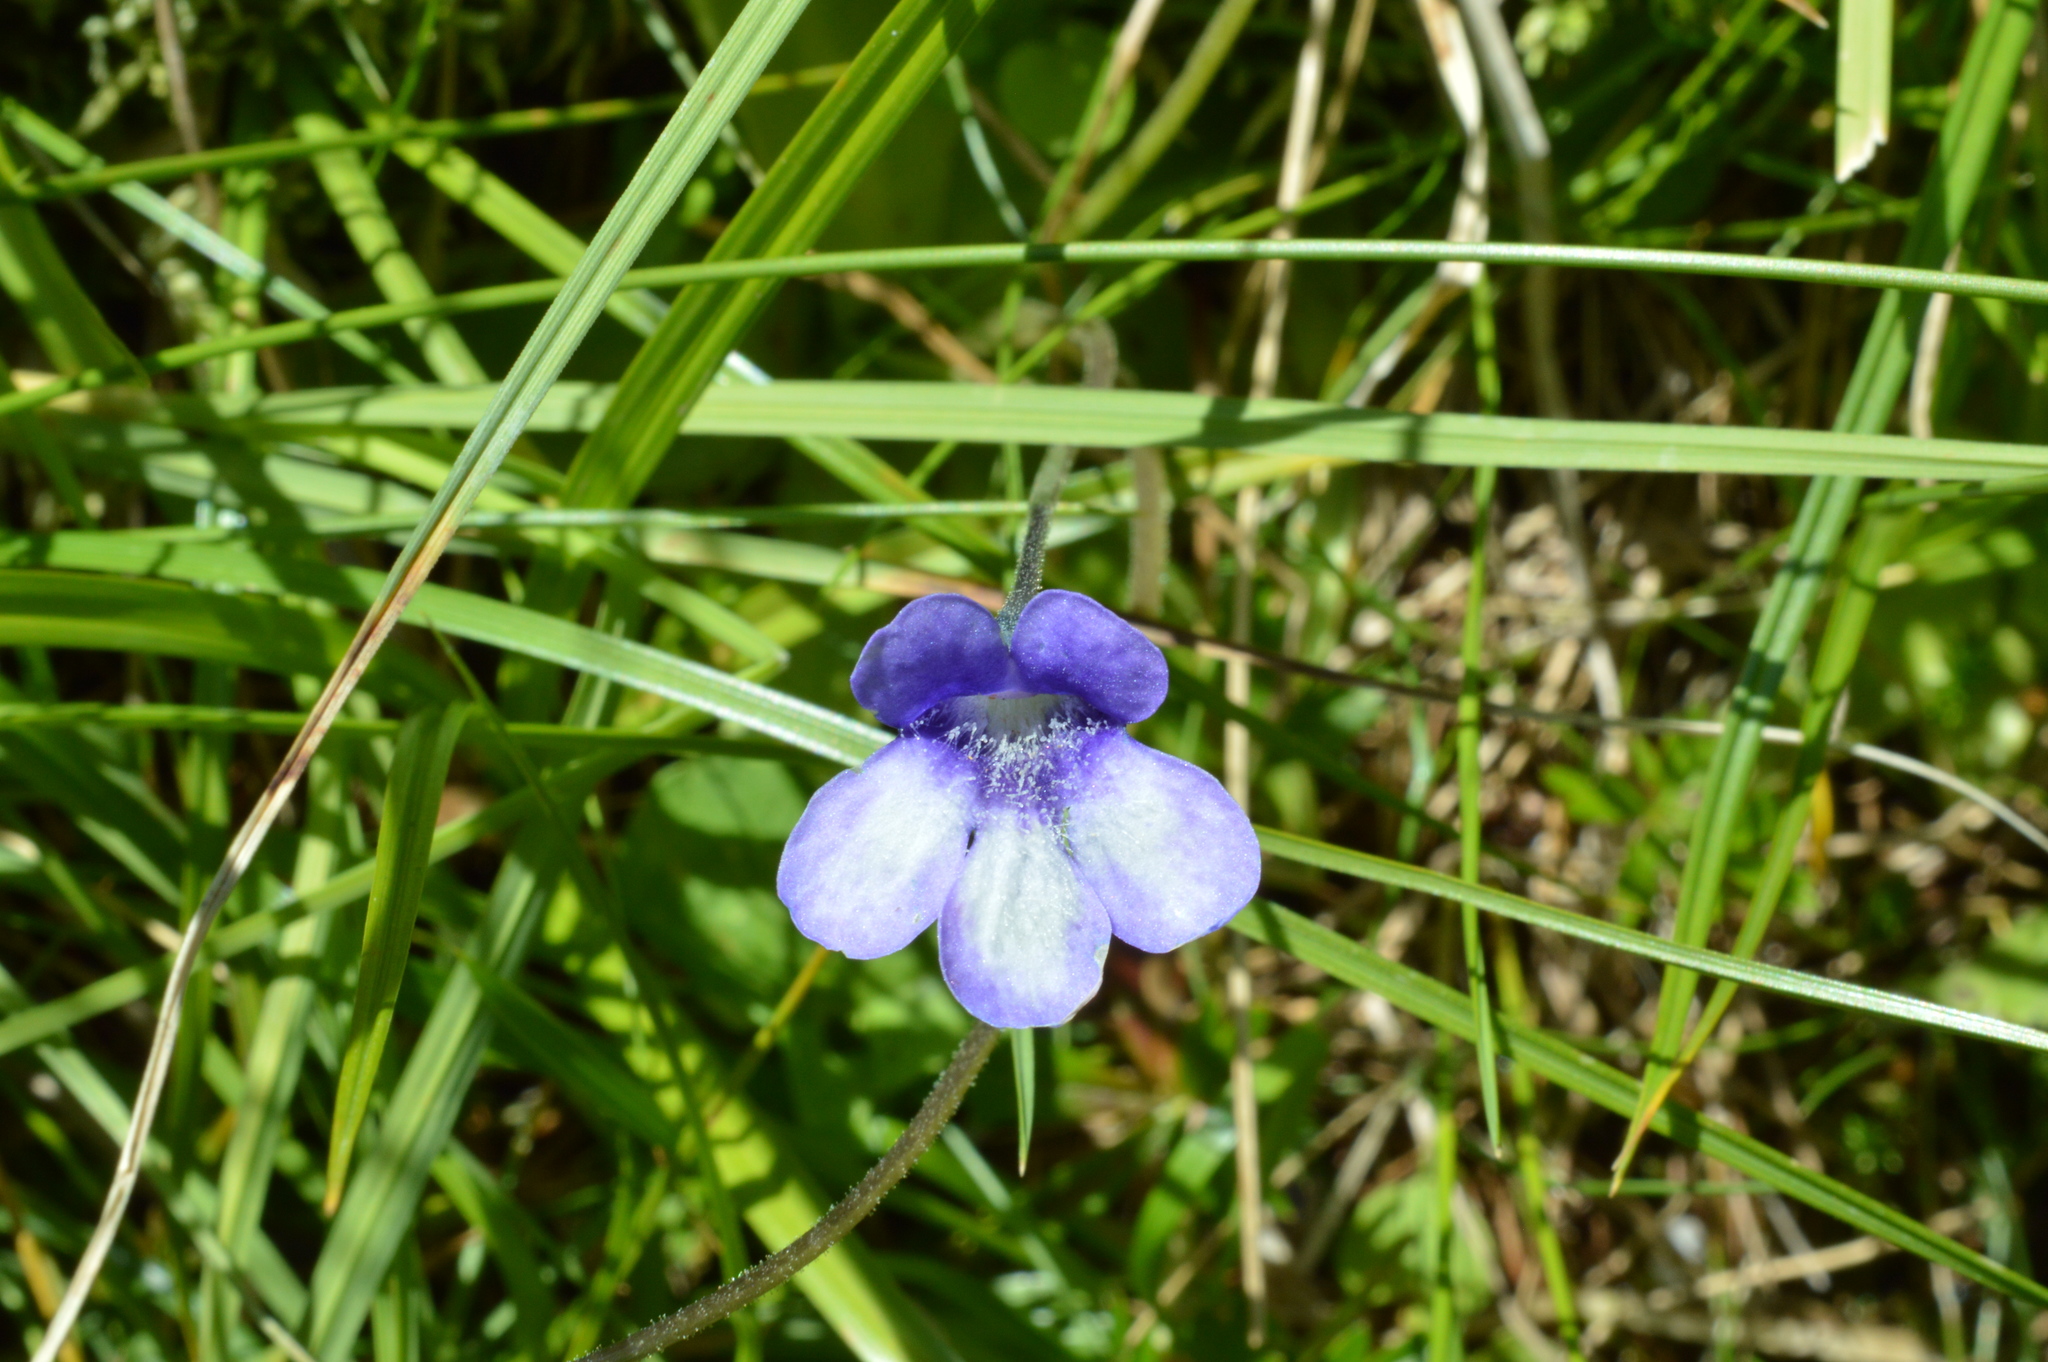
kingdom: Plantae
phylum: Tracheophyta
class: Magnoliopsida
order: Lamiales
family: Lentibulariaceae
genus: Pinguicula
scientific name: Pinguicula leptoceras
